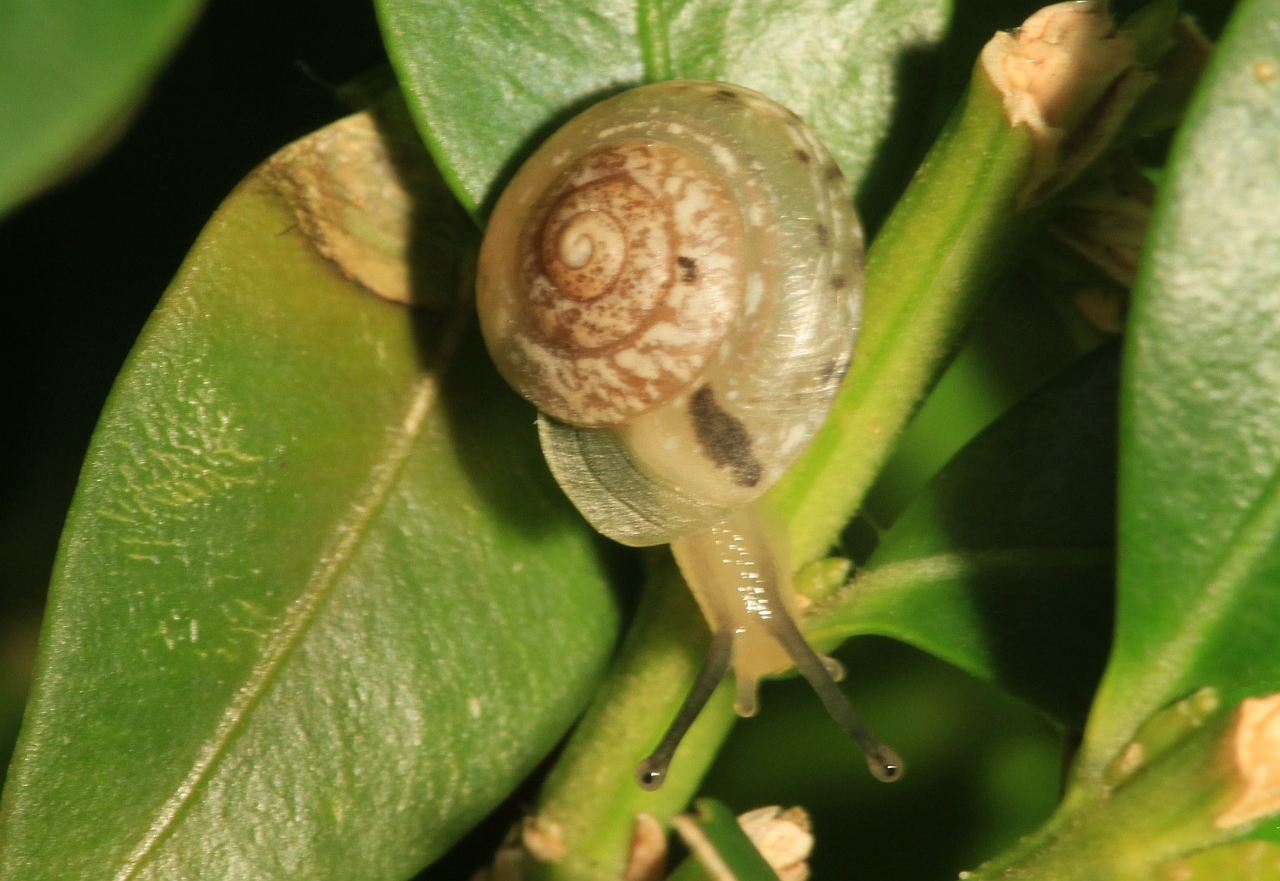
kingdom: Animalia
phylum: Mollusca
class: Gastropoda
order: Stylommatophora
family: Hygromiidae
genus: Hygromia
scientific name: Hygromia cinctella
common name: Girdled snail
